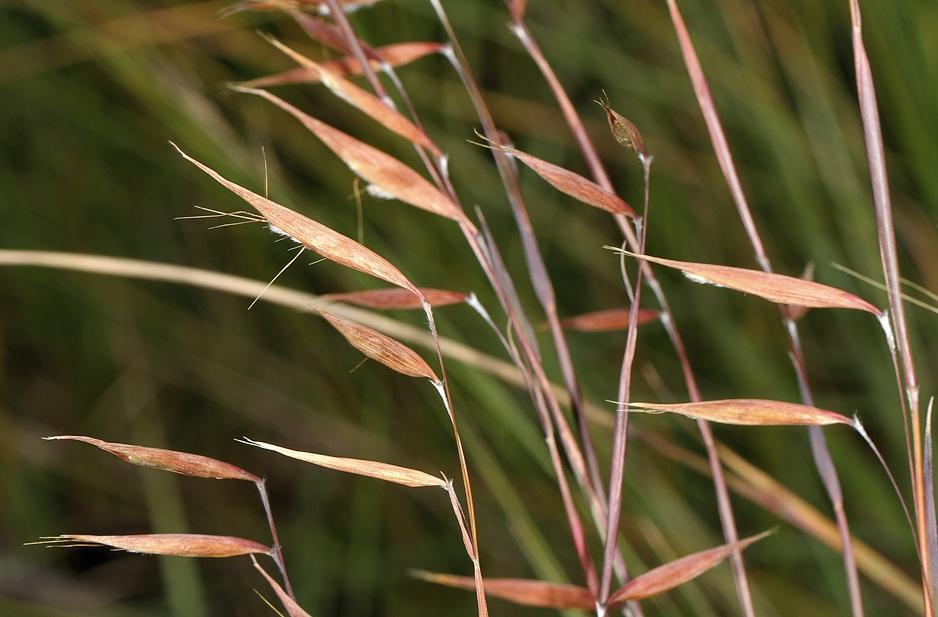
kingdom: Plantae
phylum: Tracheophyta
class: Liliopsida
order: Poales
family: Poaceae
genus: Monocymbium
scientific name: Monocymbium ceresiiforme
